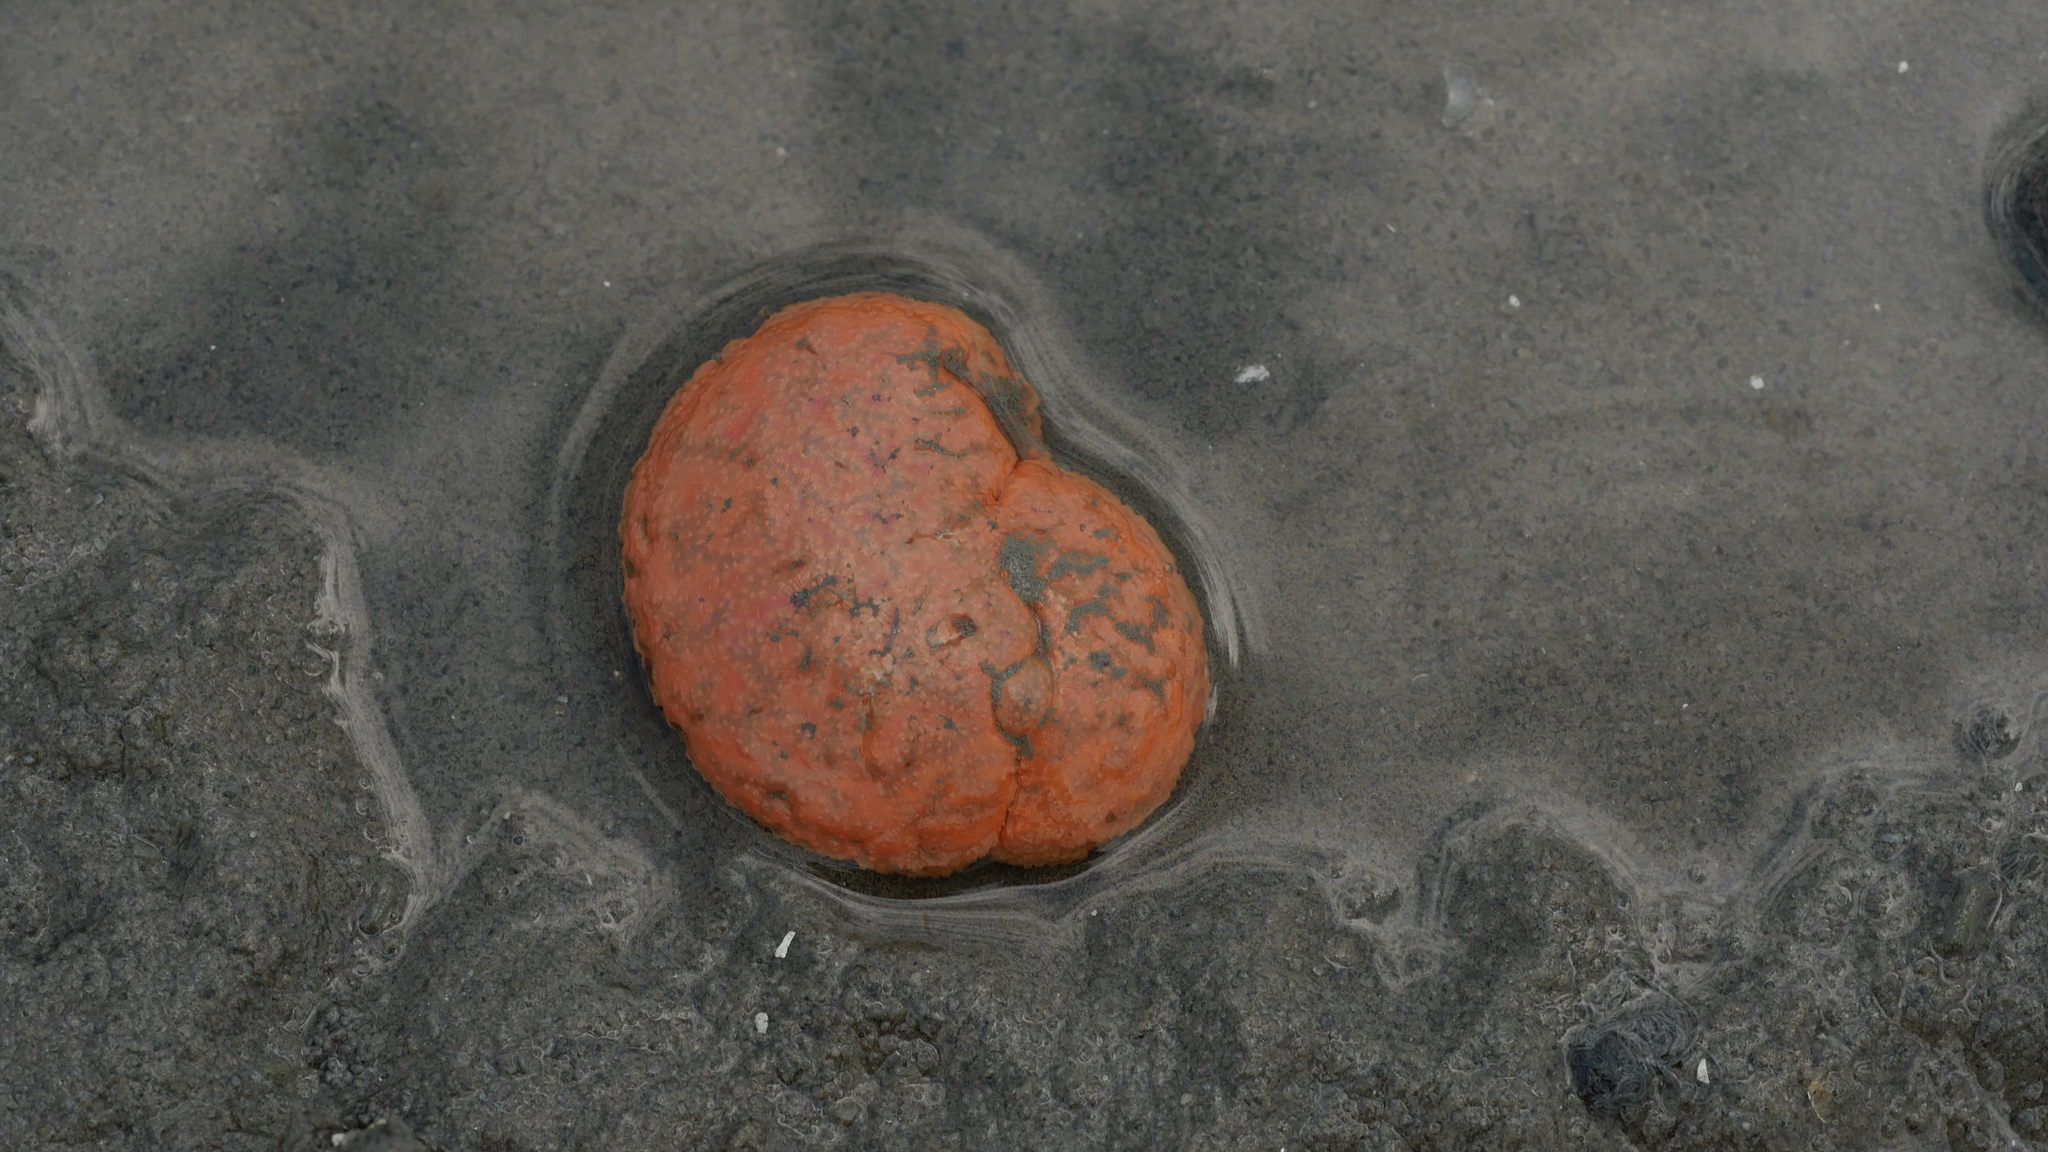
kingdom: Animalia
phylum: Chordata
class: Ascidiacea
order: Aplousobranchia
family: Polyclinidae
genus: Aplidium
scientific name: Aplidium stellatum
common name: Atlantic sea pork
